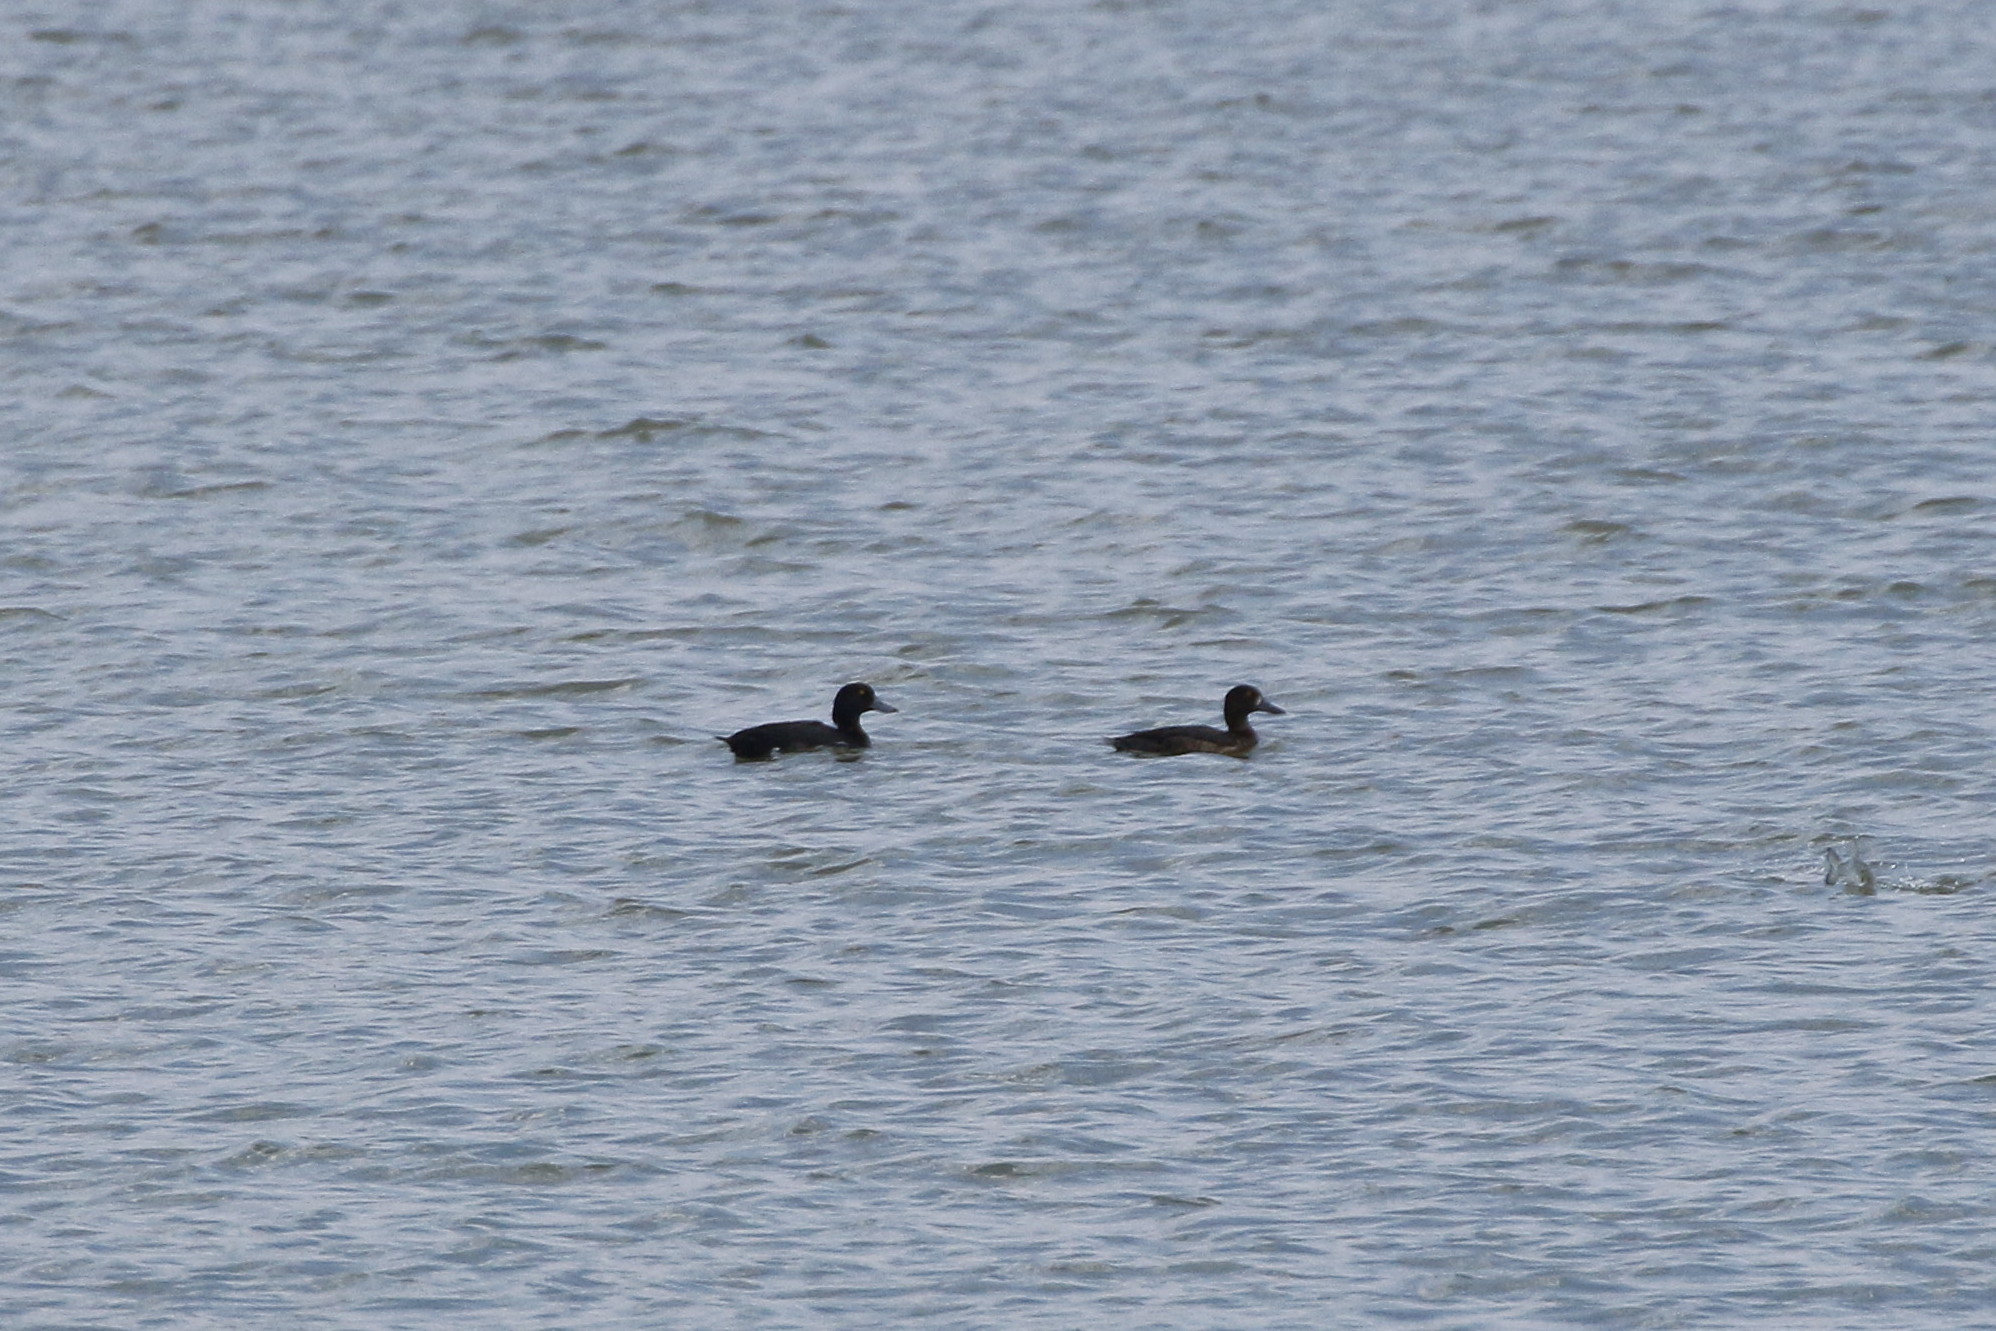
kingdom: Animalia
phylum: Chordata
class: Aves
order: Anseriformes
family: Anatidae
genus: Aythya
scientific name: Aythya fuligula
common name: Tufted duck
